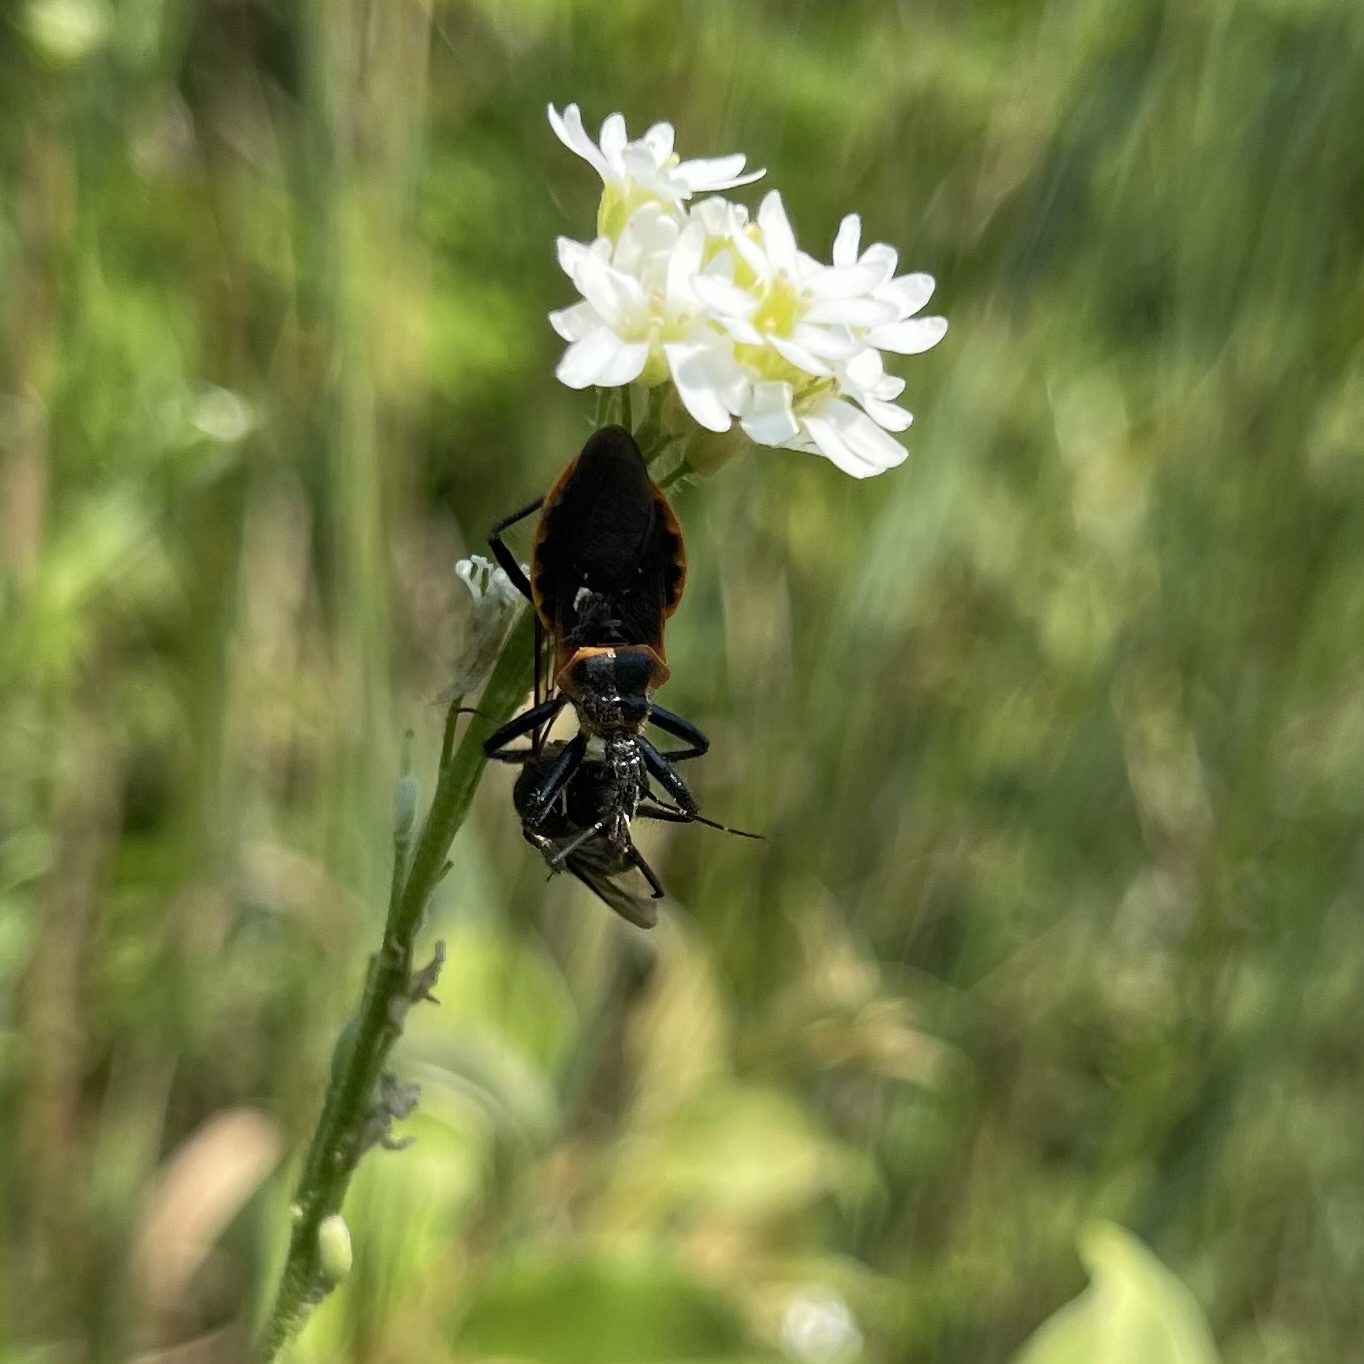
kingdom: Animalia
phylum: Arthropoda
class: Insecta
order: Hemiptera
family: Reduviidae
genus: Apiomerus
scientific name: Apiomerus crassipes
